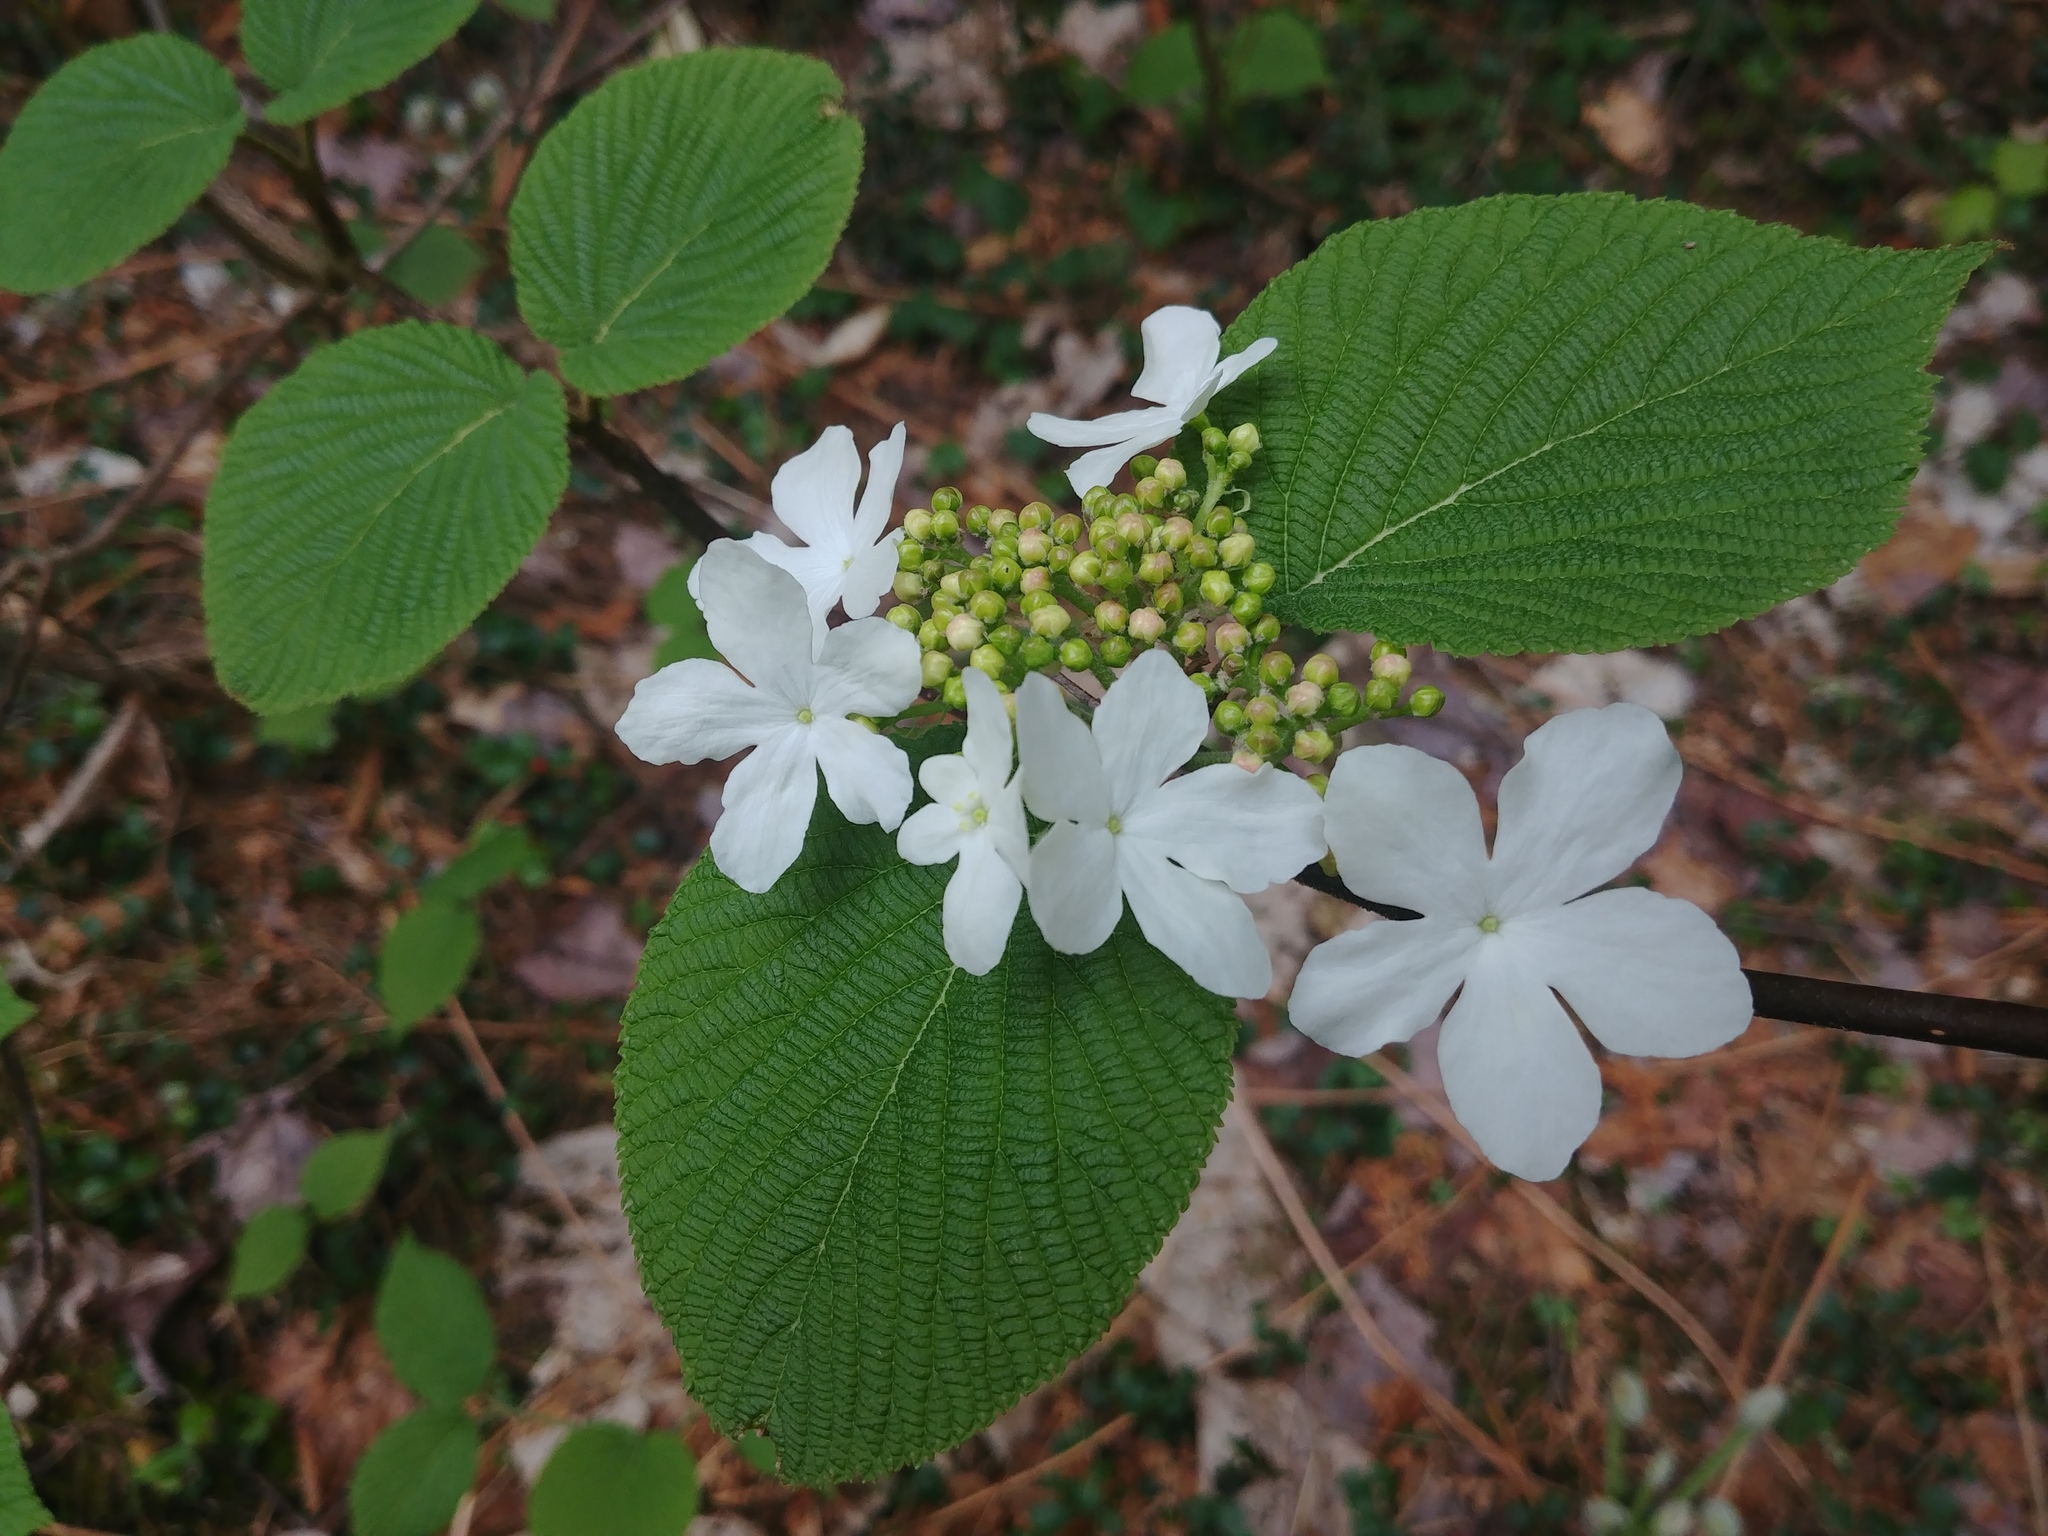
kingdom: Plantae
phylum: Tracheophyta
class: Magnoliopsida
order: Dipsacales
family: Viburnaceae
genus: Viburnum
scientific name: Viburnum lantanoides
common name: Hobblebush
